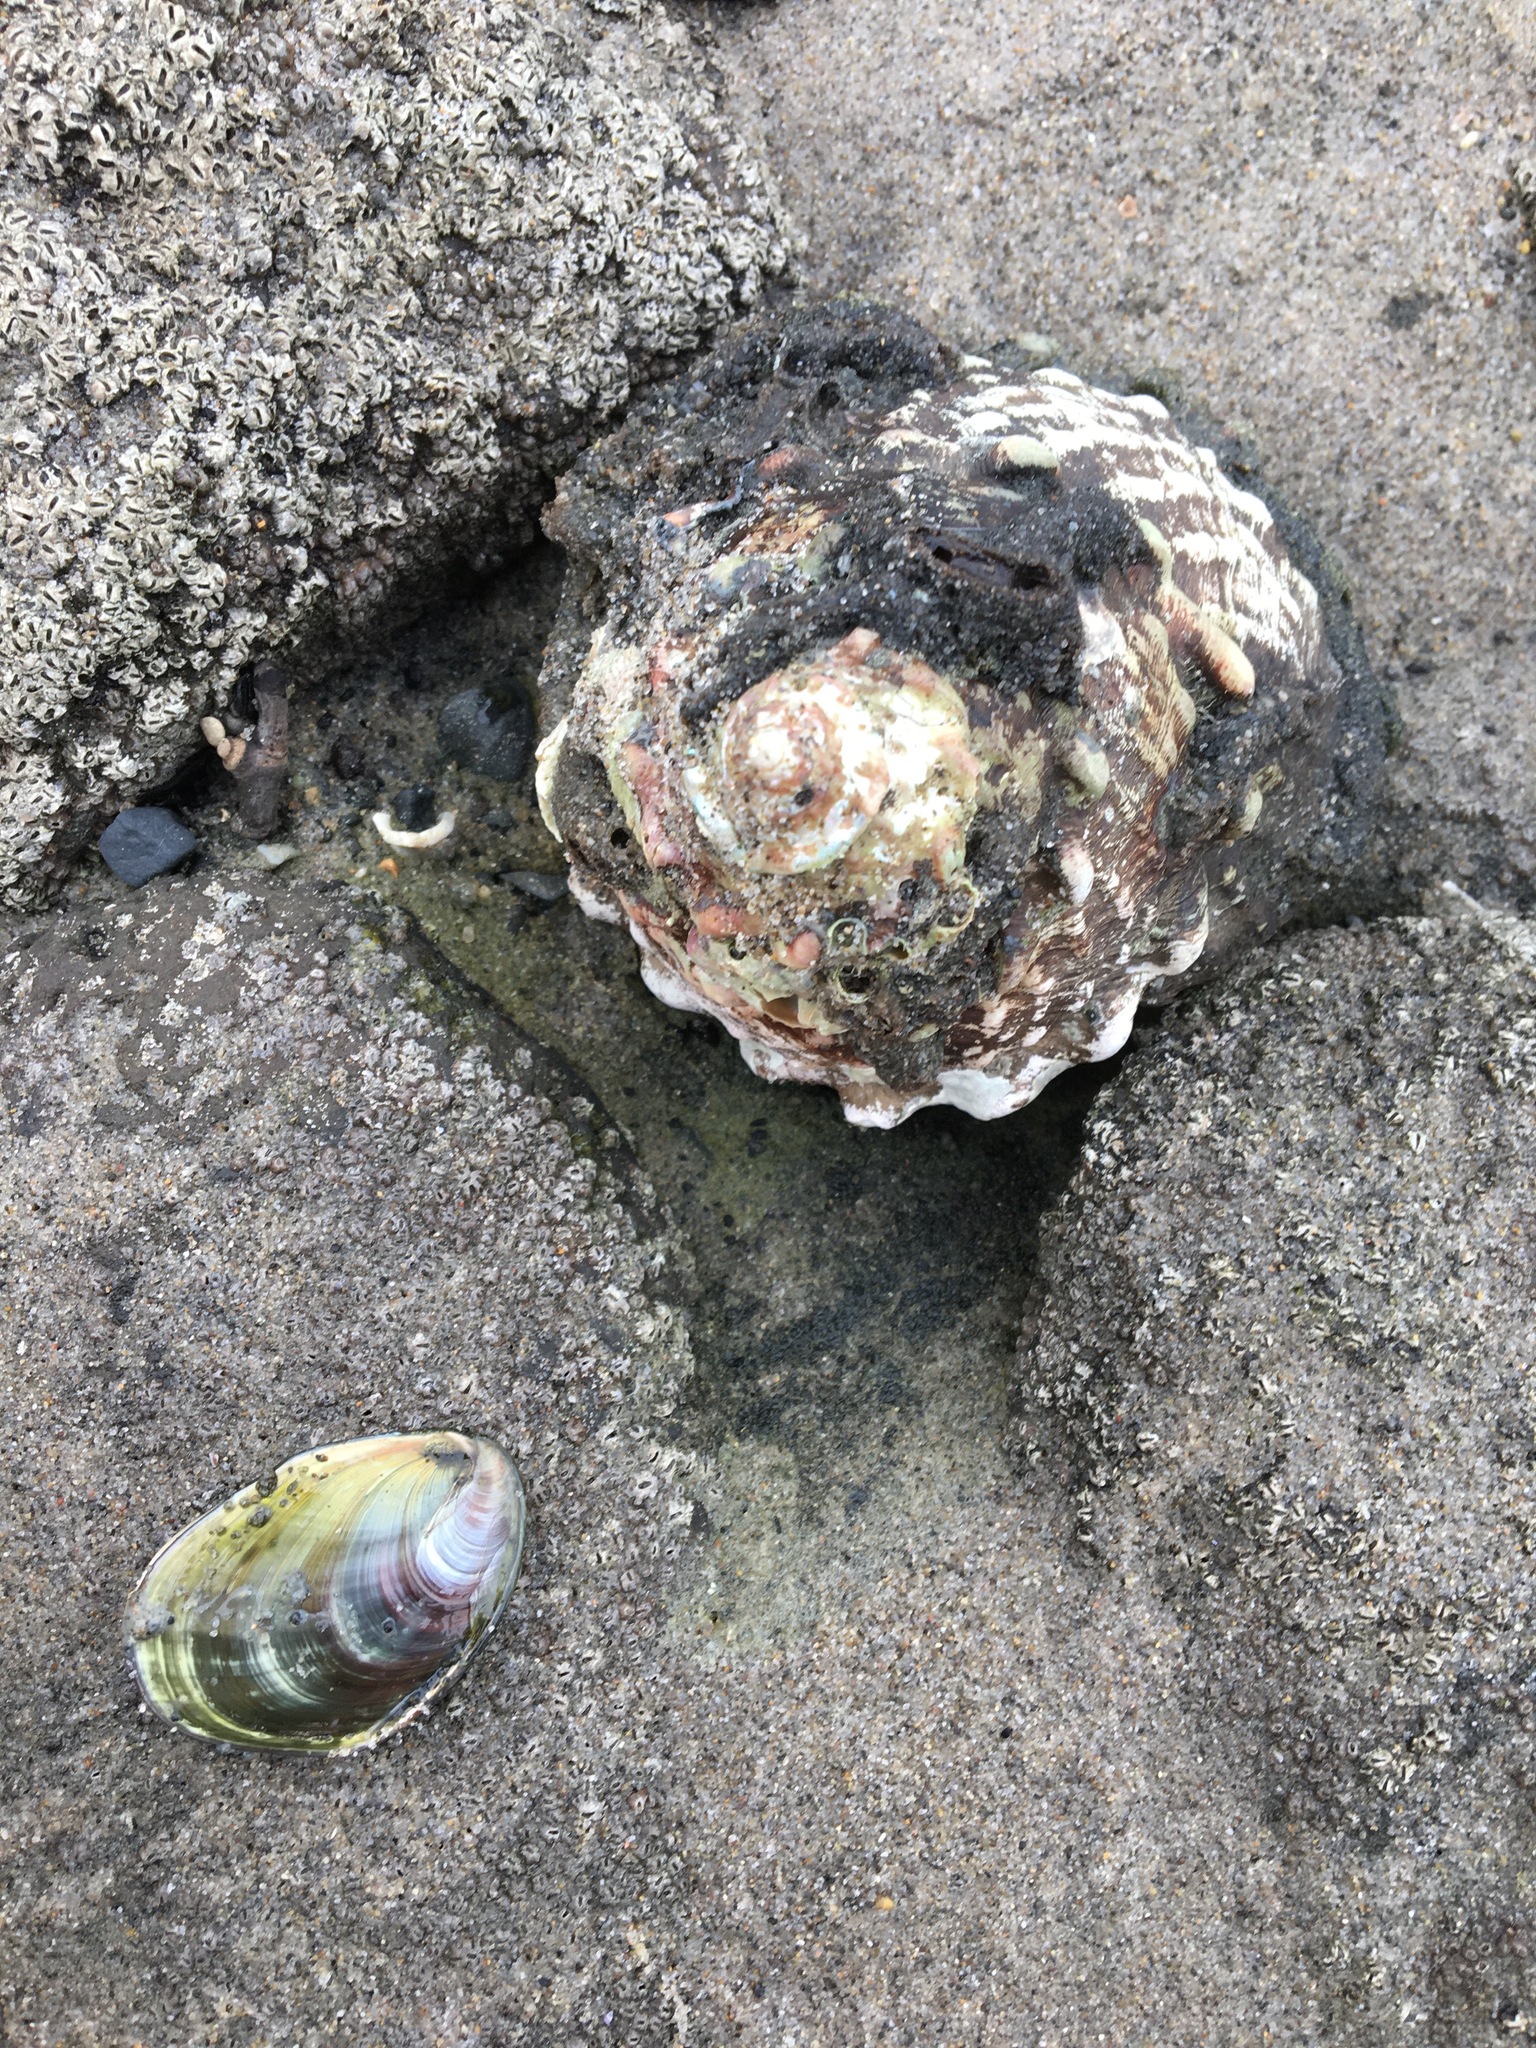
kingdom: Animalia
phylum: Mollusca
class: Gastropoda
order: Trochida
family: Turbinidae
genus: Megastraea
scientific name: Megastraea undosa
